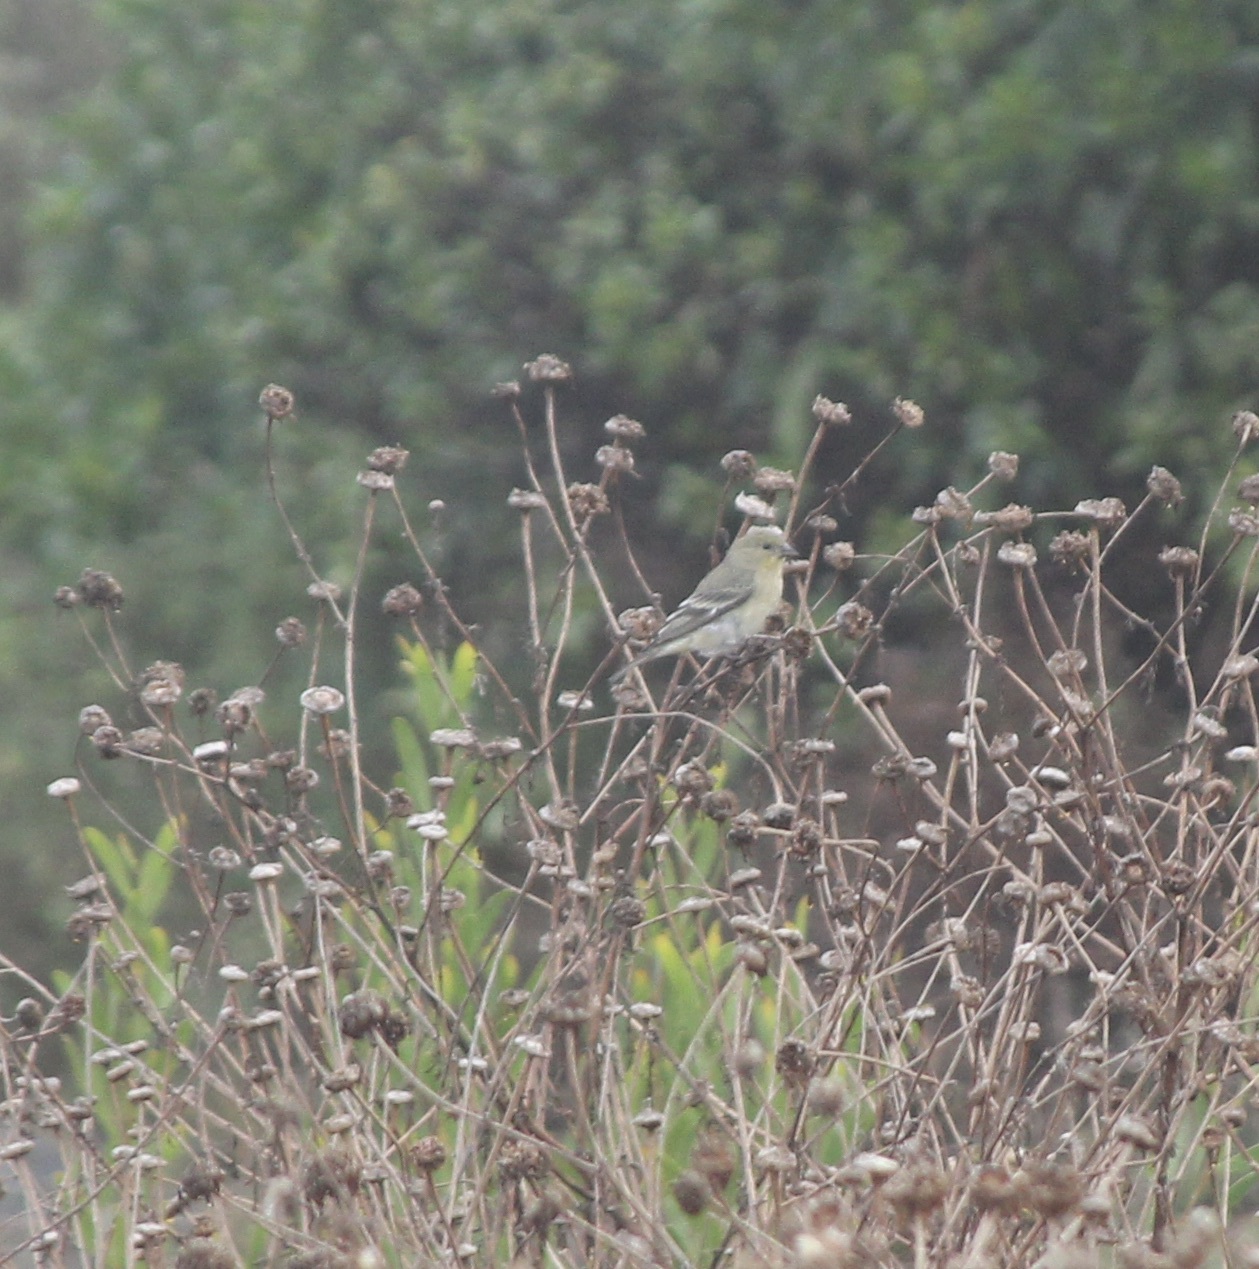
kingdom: Animalia
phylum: Chordata
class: Aves
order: Passeriformes
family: Fringillidae
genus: Spinus
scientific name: Spinus psaltria
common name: Lesser goldfinch
